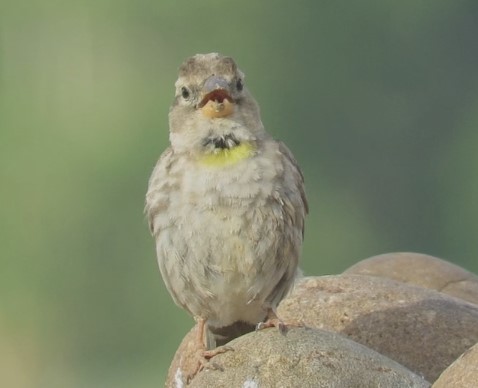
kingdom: Animalia
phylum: Chordata
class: Aves
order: Passeriformes
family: Passeridae
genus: Petronia
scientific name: Petronia petronia
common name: Rock sparrow
